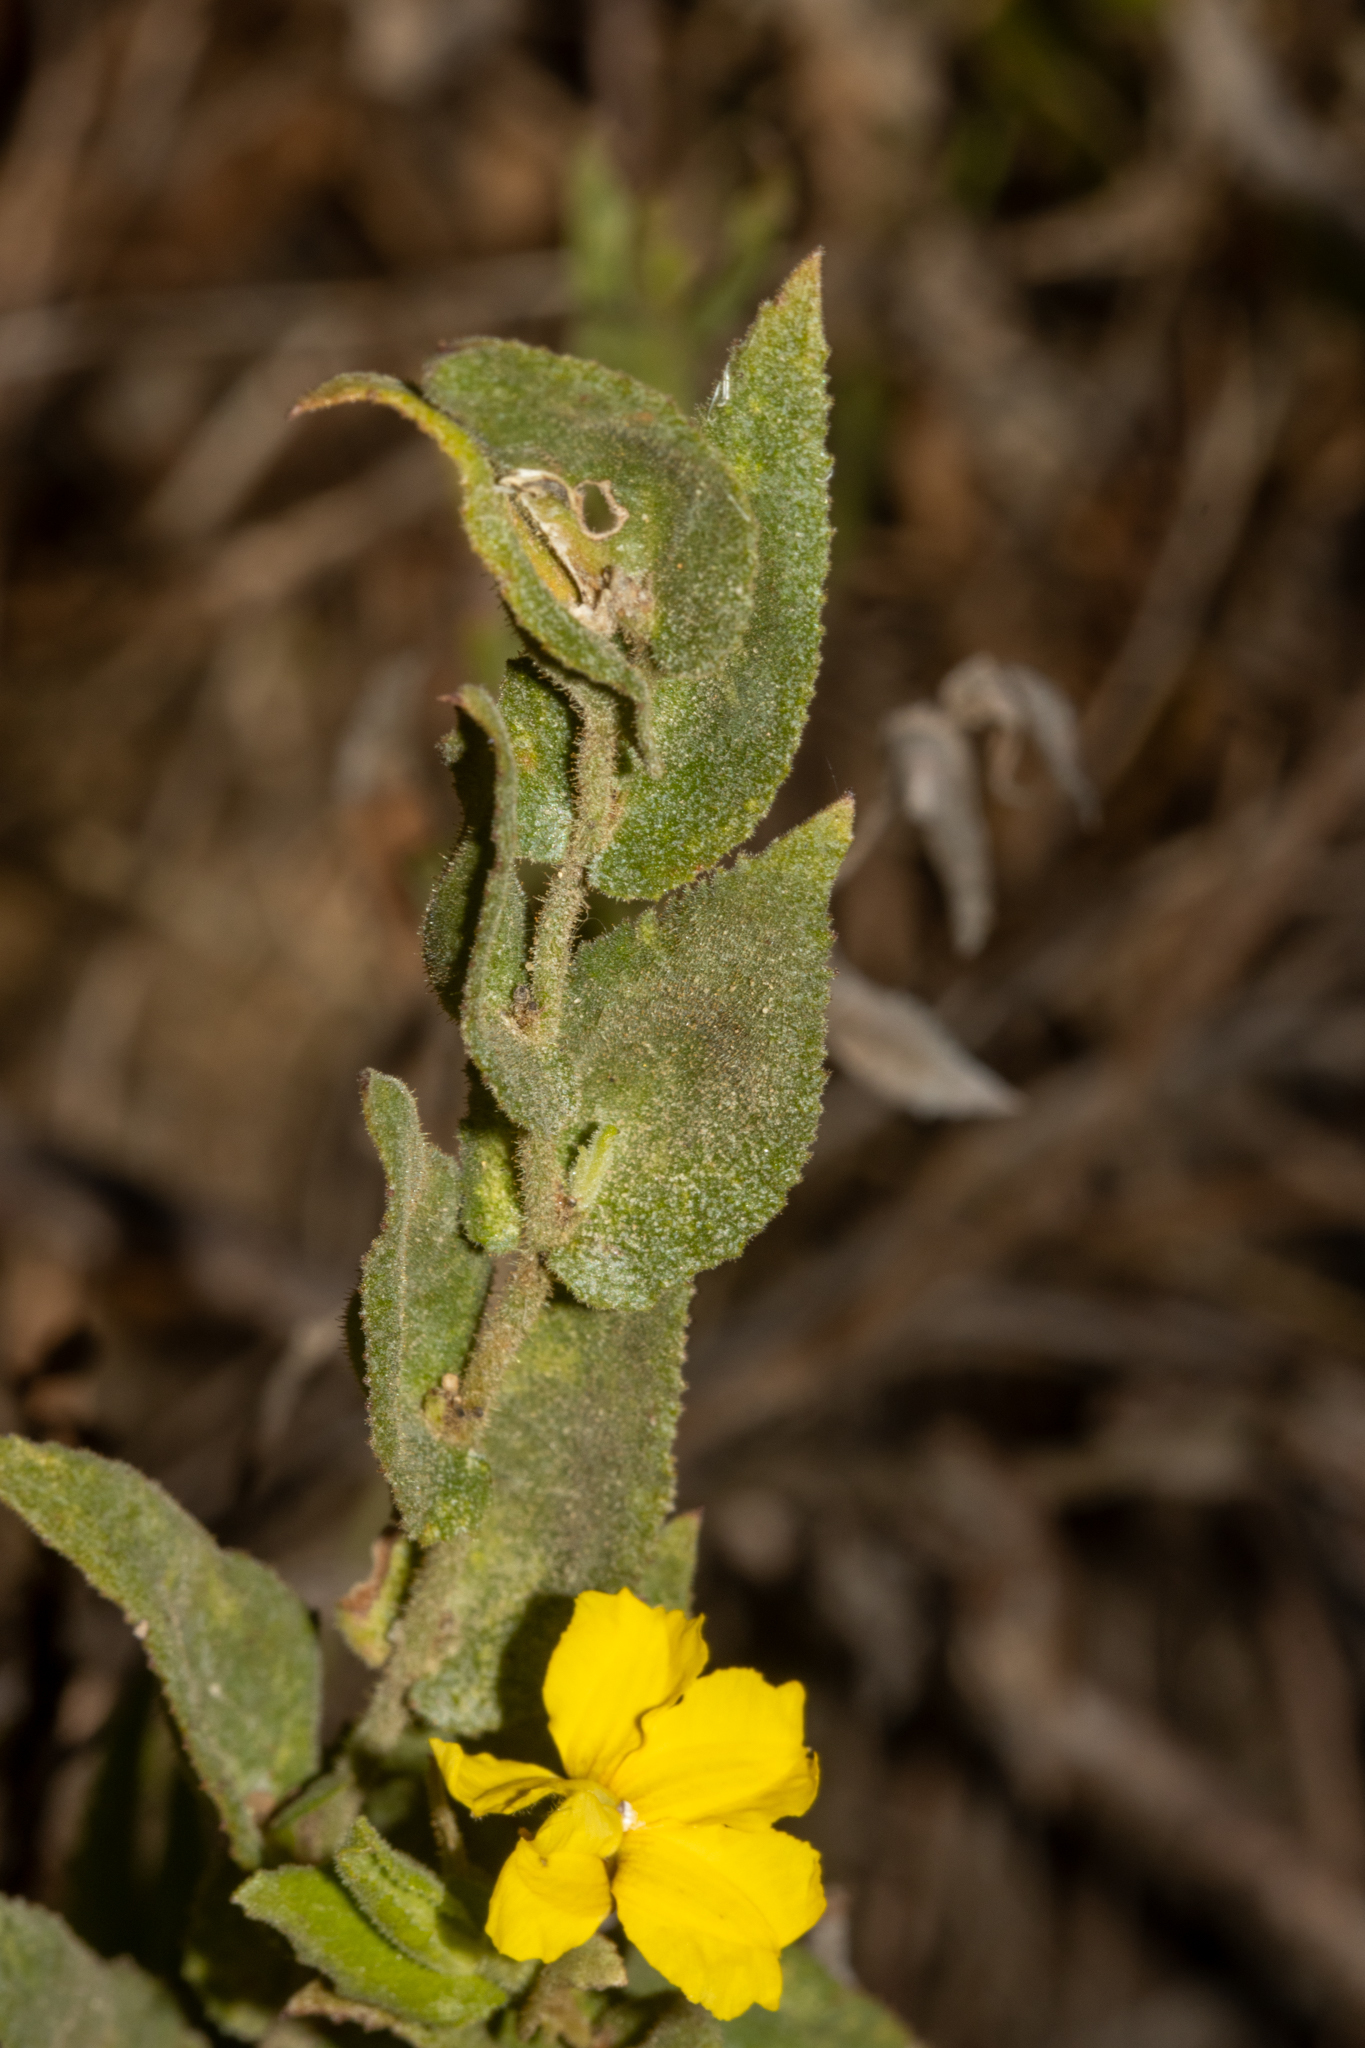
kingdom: Plantae
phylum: Tracheophyta
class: Magnoliopsida
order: Asterales
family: Goodeniaceae
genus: Goodenia
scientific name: Goodenia amplexans
